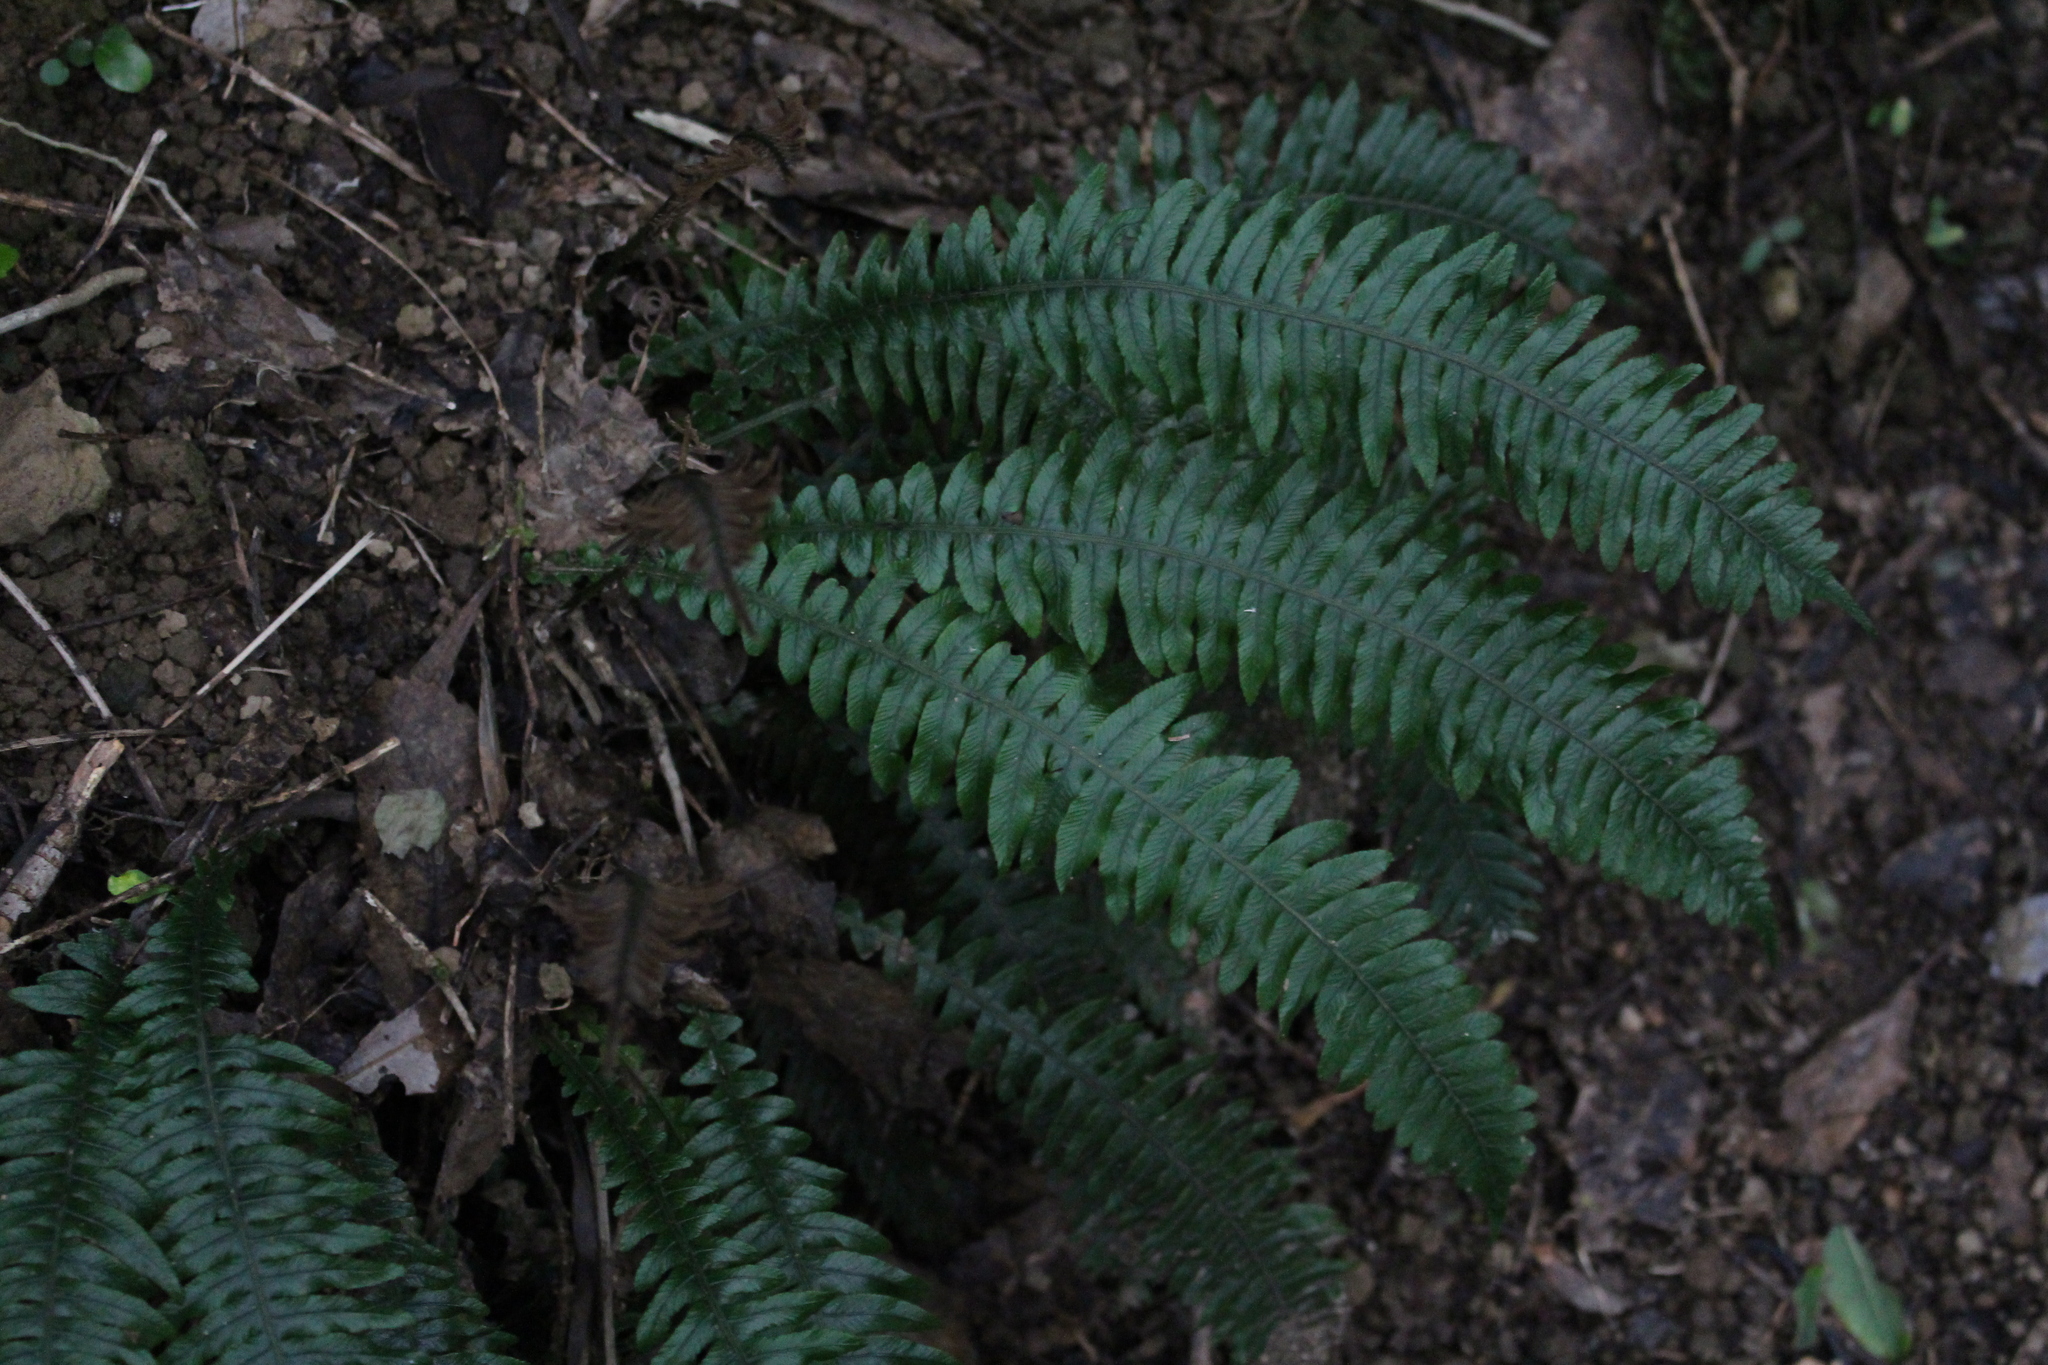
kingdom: Plantae
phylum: Tracheophyta
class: Polypodiopsida
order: Polypodiales
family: Blechnaceae
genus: Austroblechnum
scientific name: Austroblechnum lanceolatum
